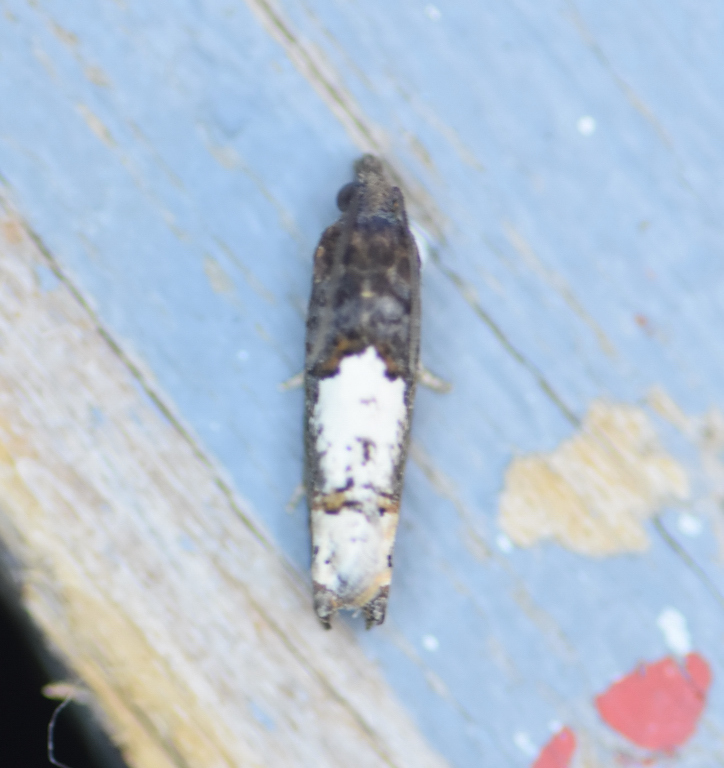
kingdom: Animalia
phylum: Arthropoda
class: Insecta
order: Lepidoptera
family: Tortricidae
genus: Eucosma
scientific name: Eucosma parmatana
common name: Aster eucosma moth
